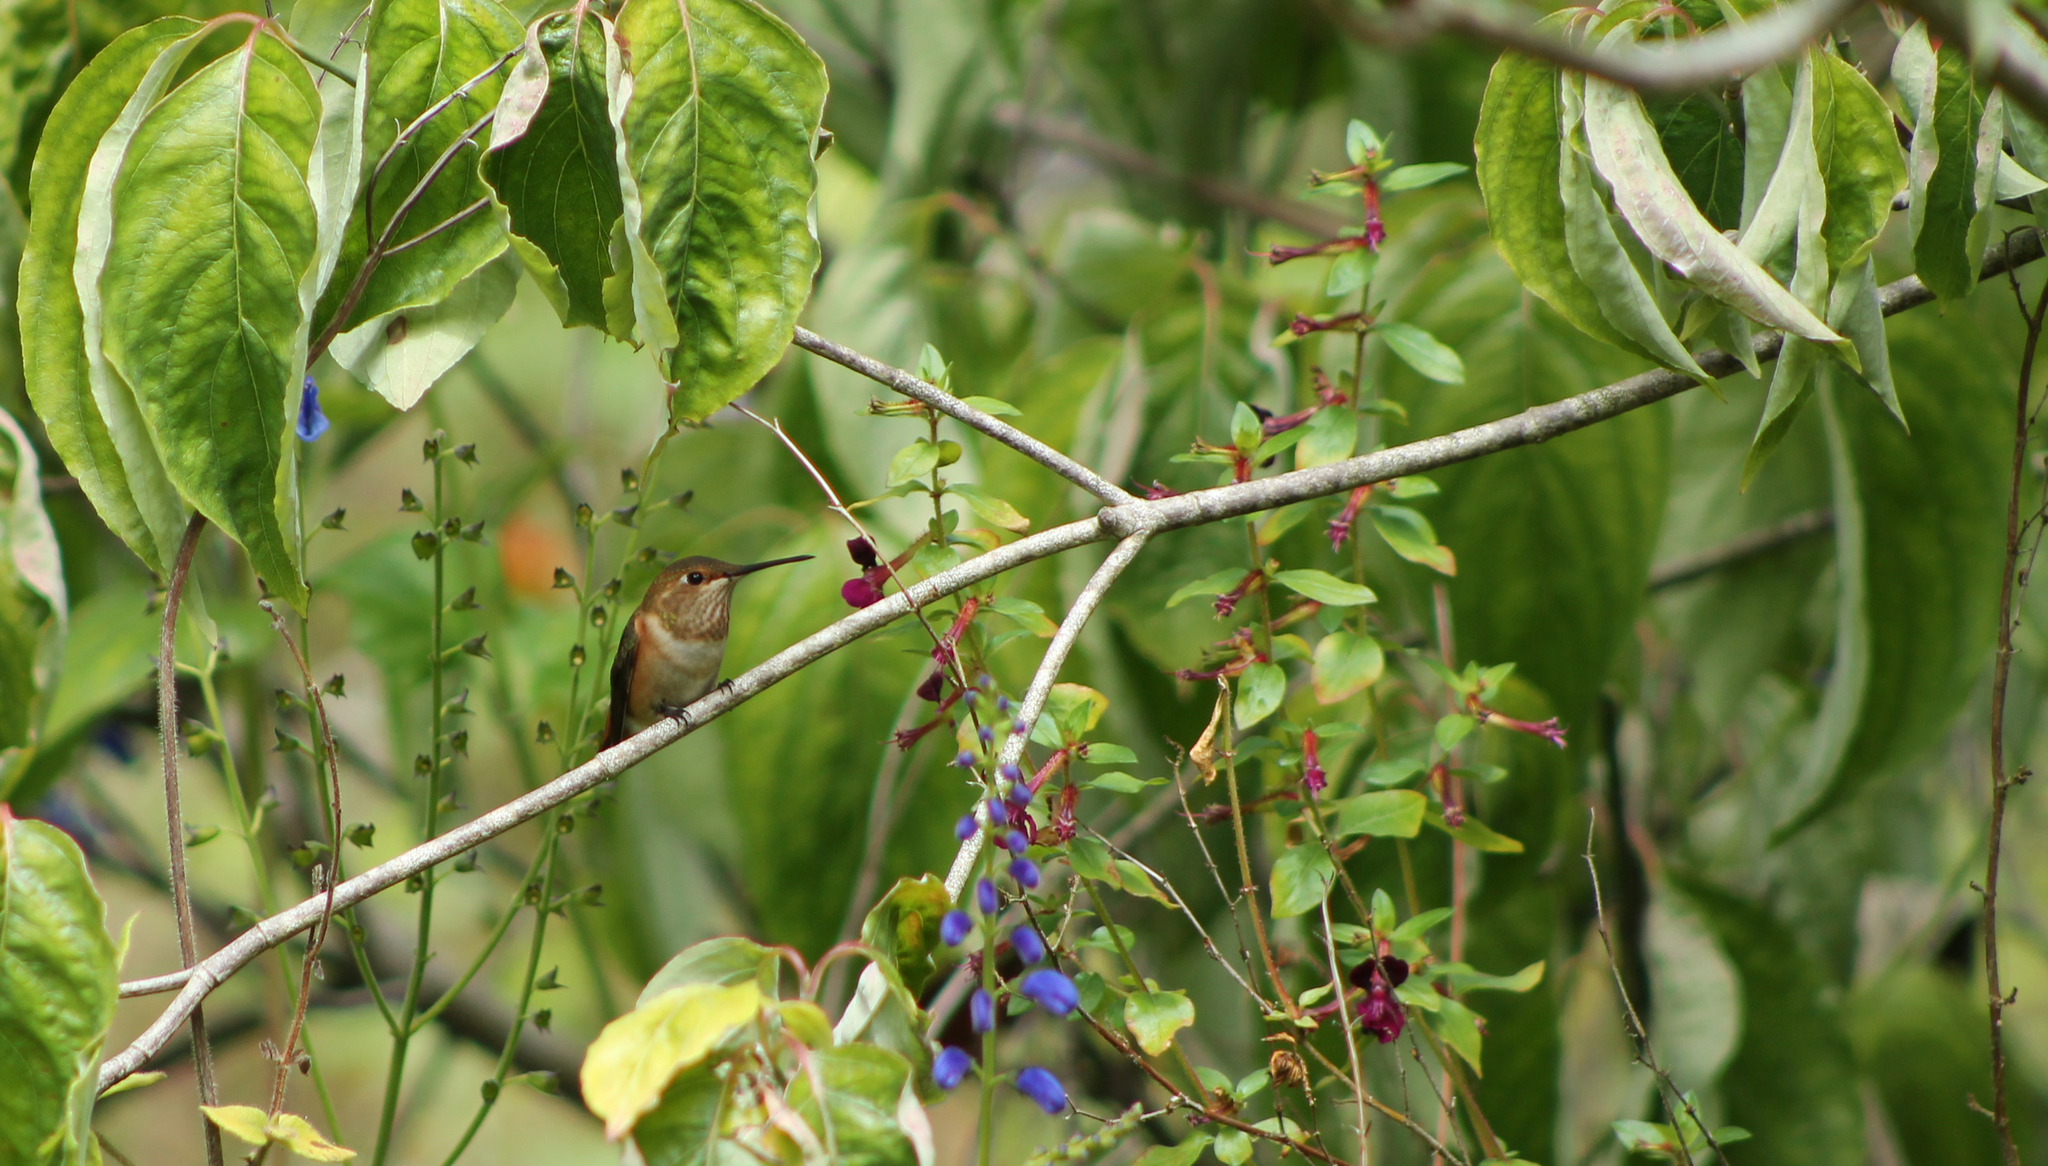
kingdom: Animalia
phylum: Chordata
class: Aves
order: Apodiformes
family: Trochilidae
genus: Selasphorus
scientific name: Selasphorus
